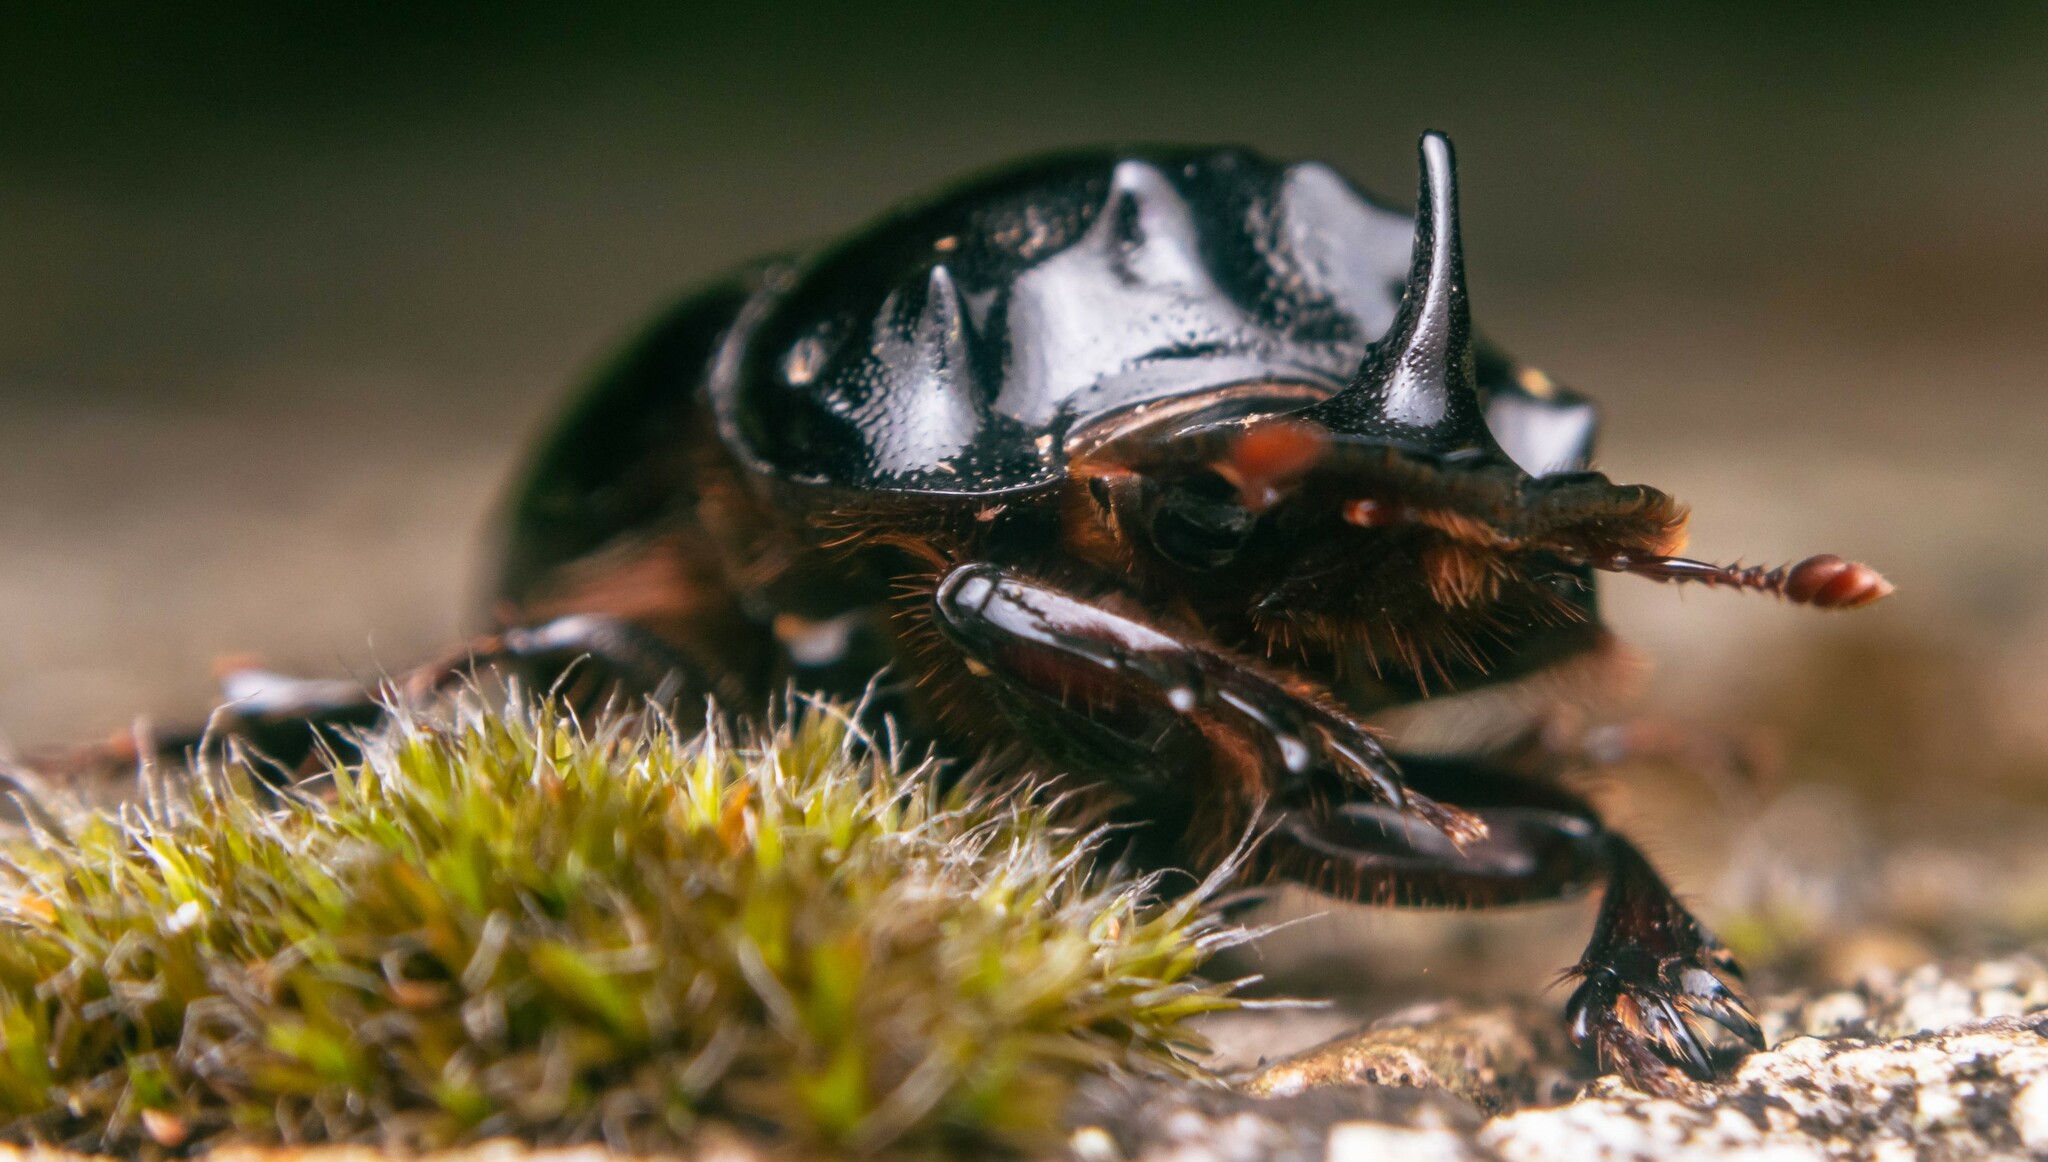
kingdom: Animalia
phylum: Arthropoda
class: Insecta
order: Coleoptera
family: Scarabaeidae
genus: Copris
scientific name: Copris lunaris
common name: Horned dung beetle
